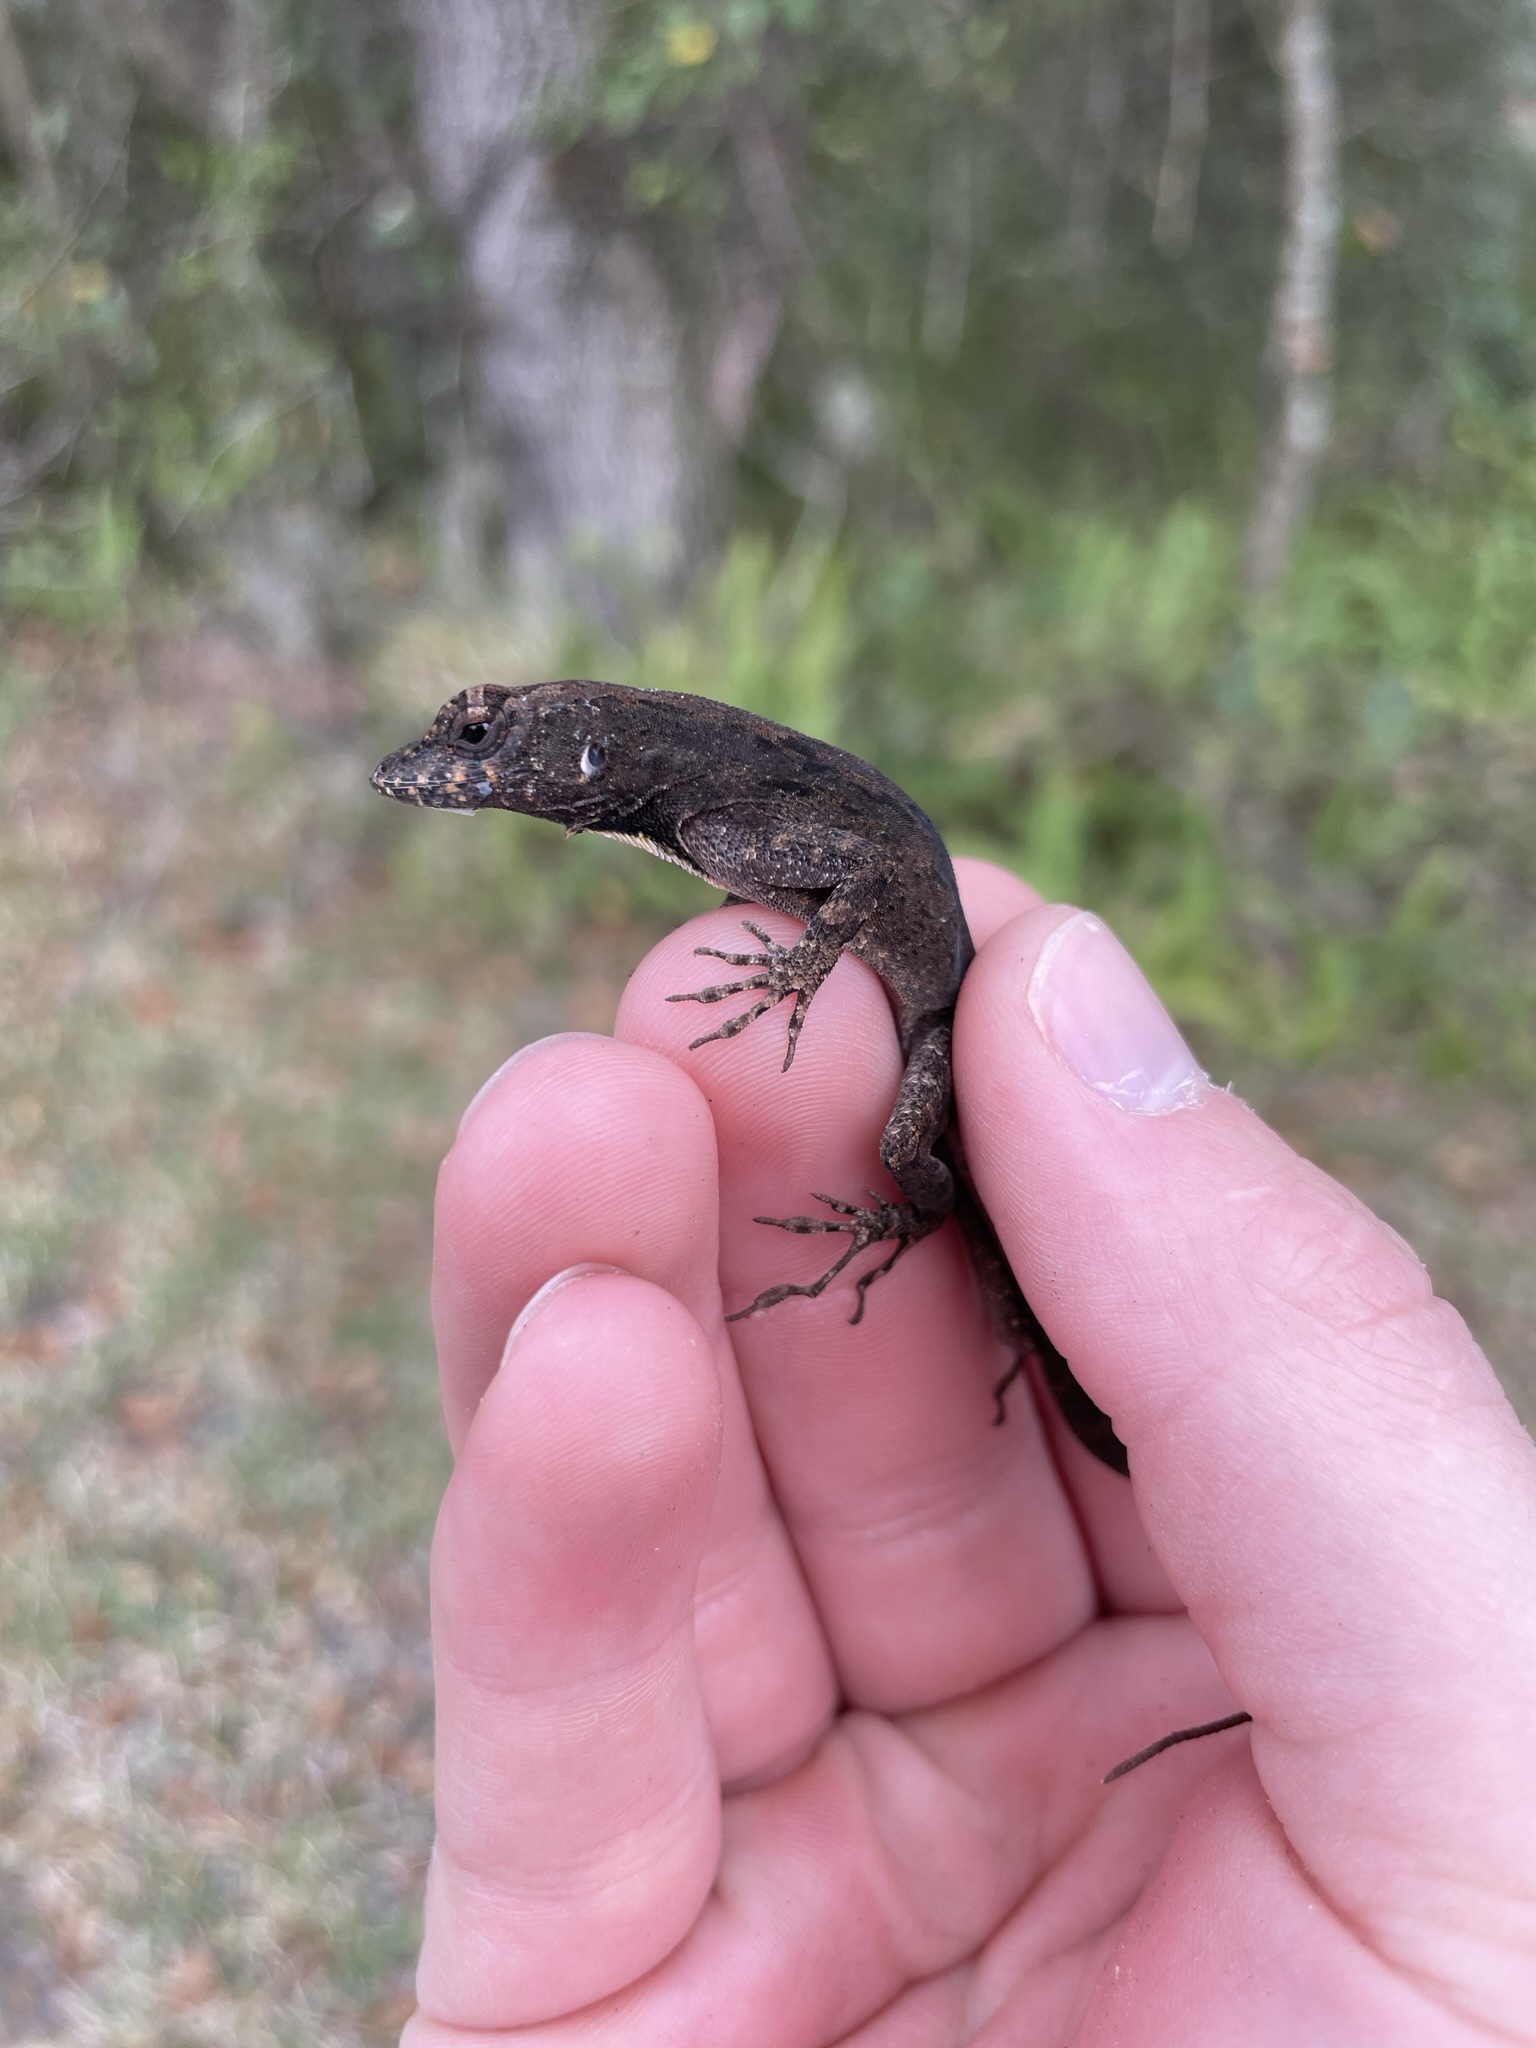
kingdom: Animalia
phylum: Chordata
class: Squamata
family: Dactyloidae
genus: Anolis
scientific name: Anolis sagrei
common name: Brown anole
